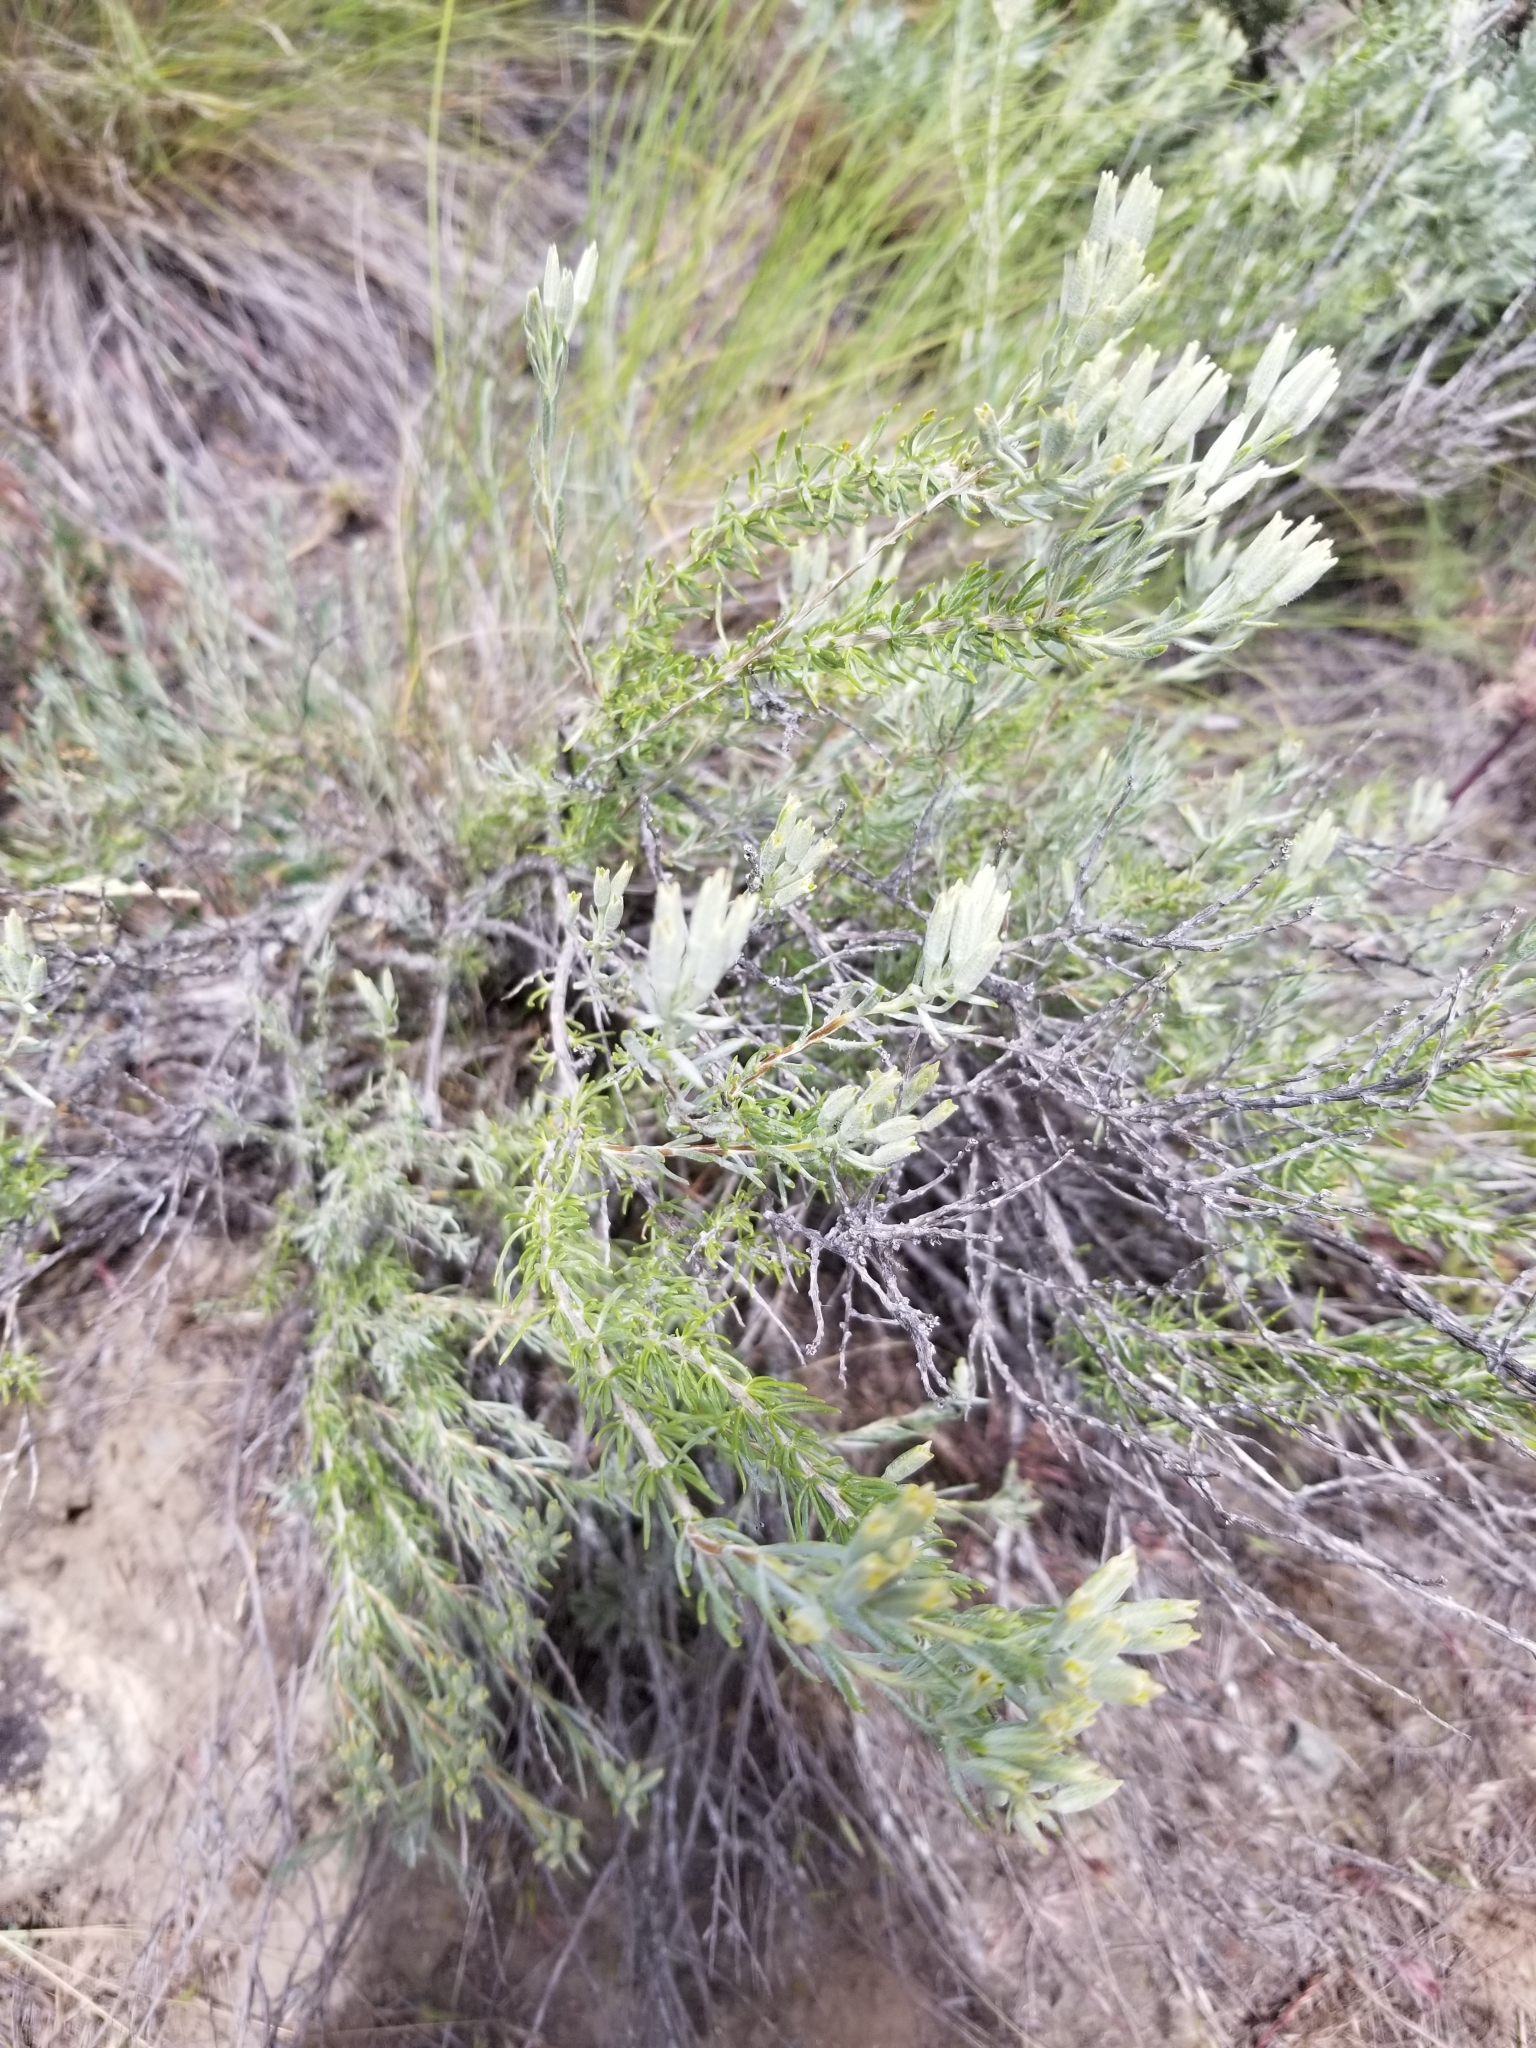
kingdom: Plantae
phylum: Tracheophyta
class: Magnoliopsida
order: Asterales
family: Asteraceae
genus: Tetradymia
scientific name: Tetradymia canescens
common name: Spineless horsebrush
